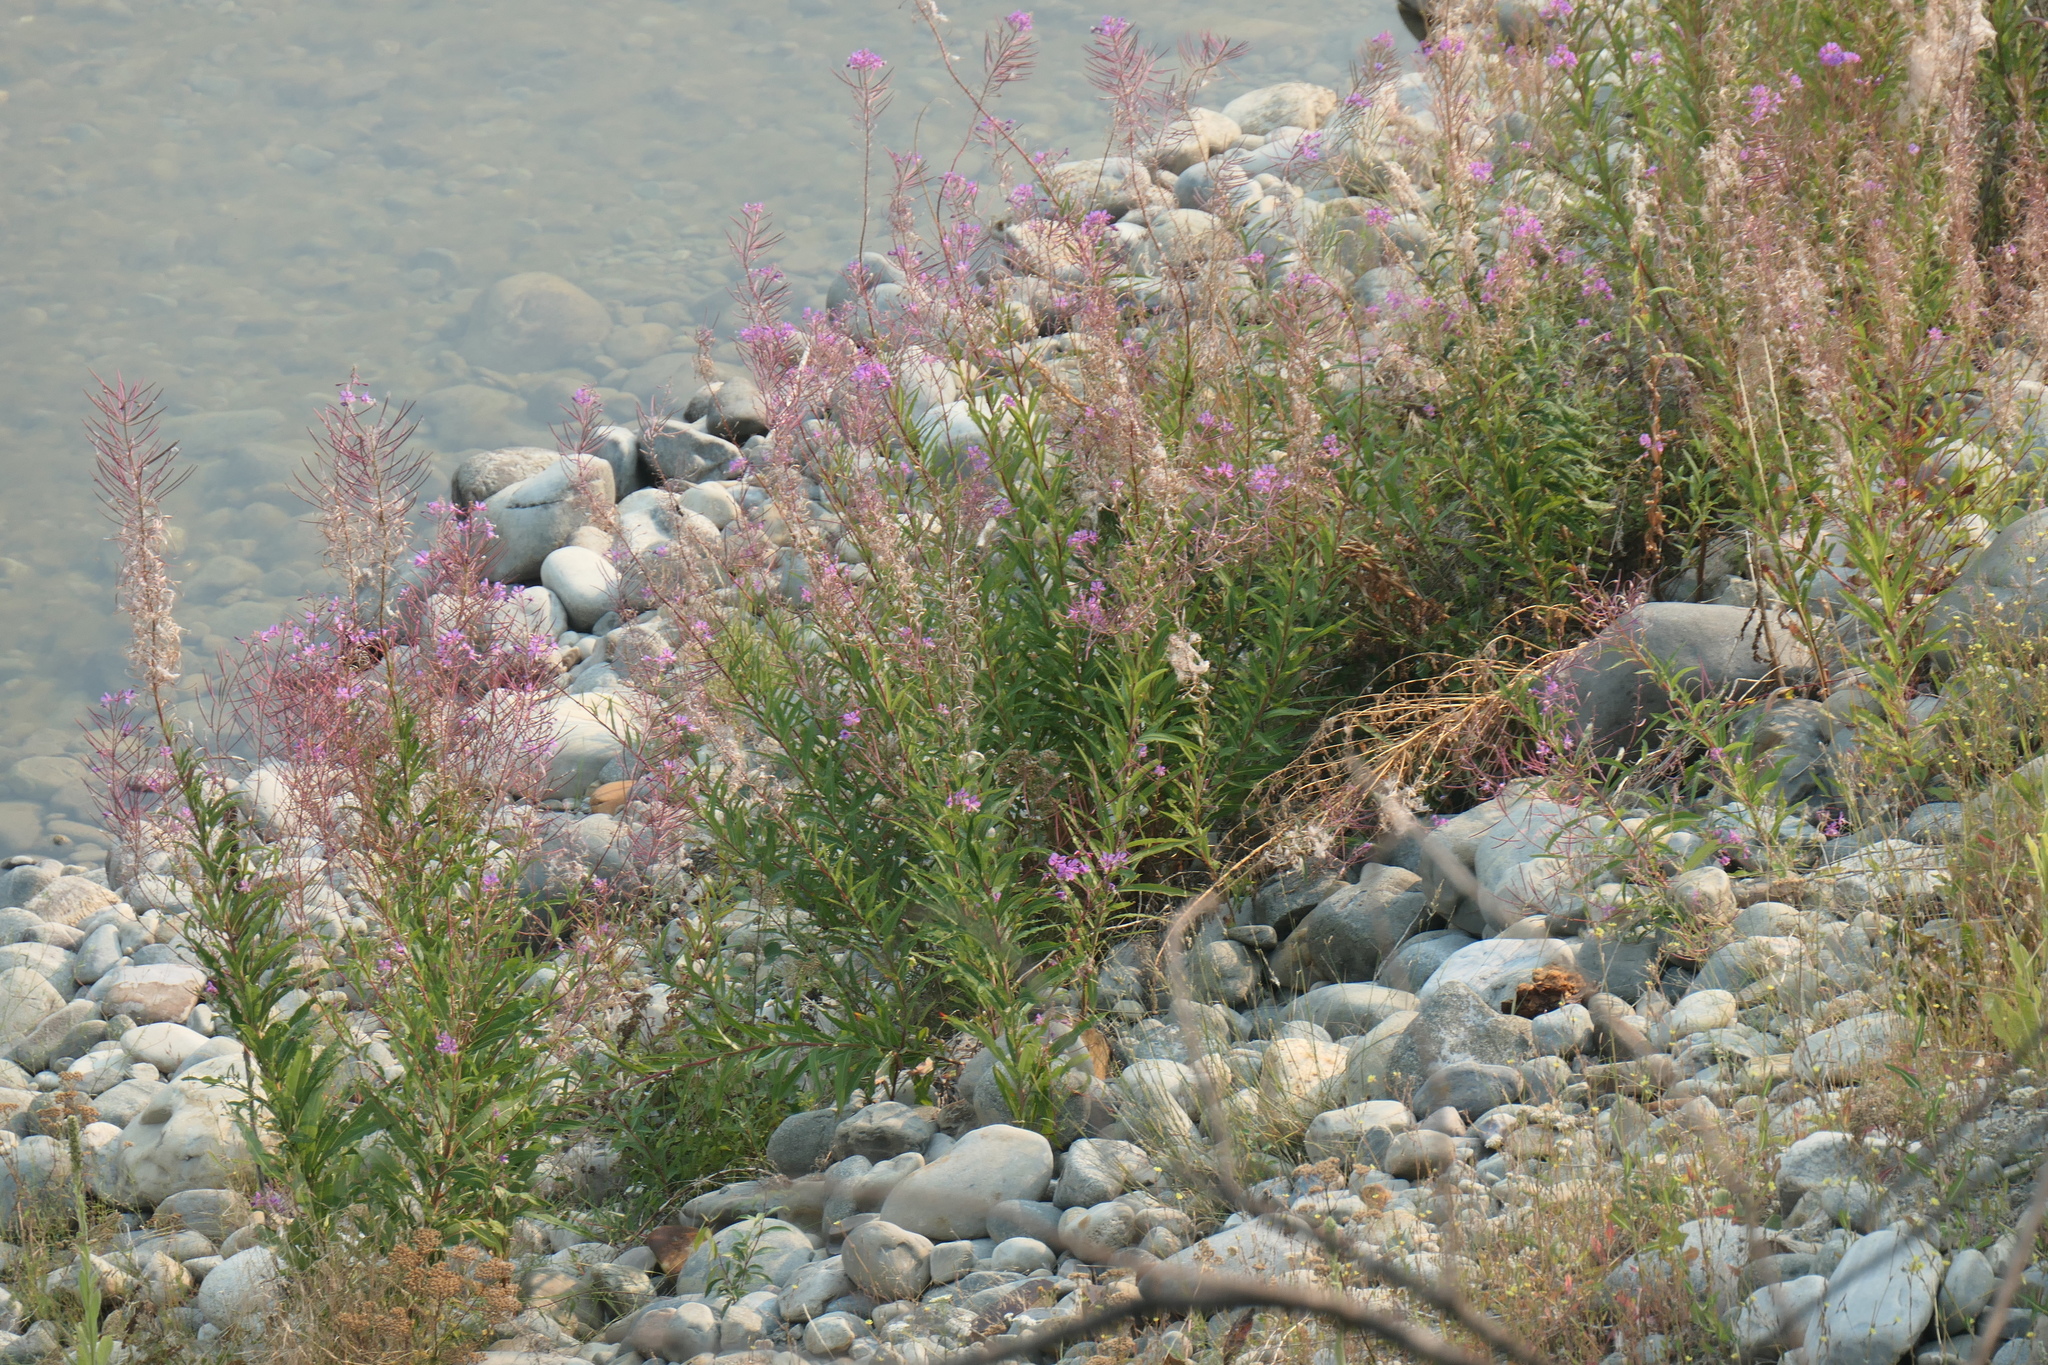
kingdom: Plantae
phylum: Tracheophyta
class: Magnoliopsida
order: Myrtales
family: Onagraceae
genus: Chamaenerion
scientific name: Chamaenerion angustifolium
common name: Fireweed
